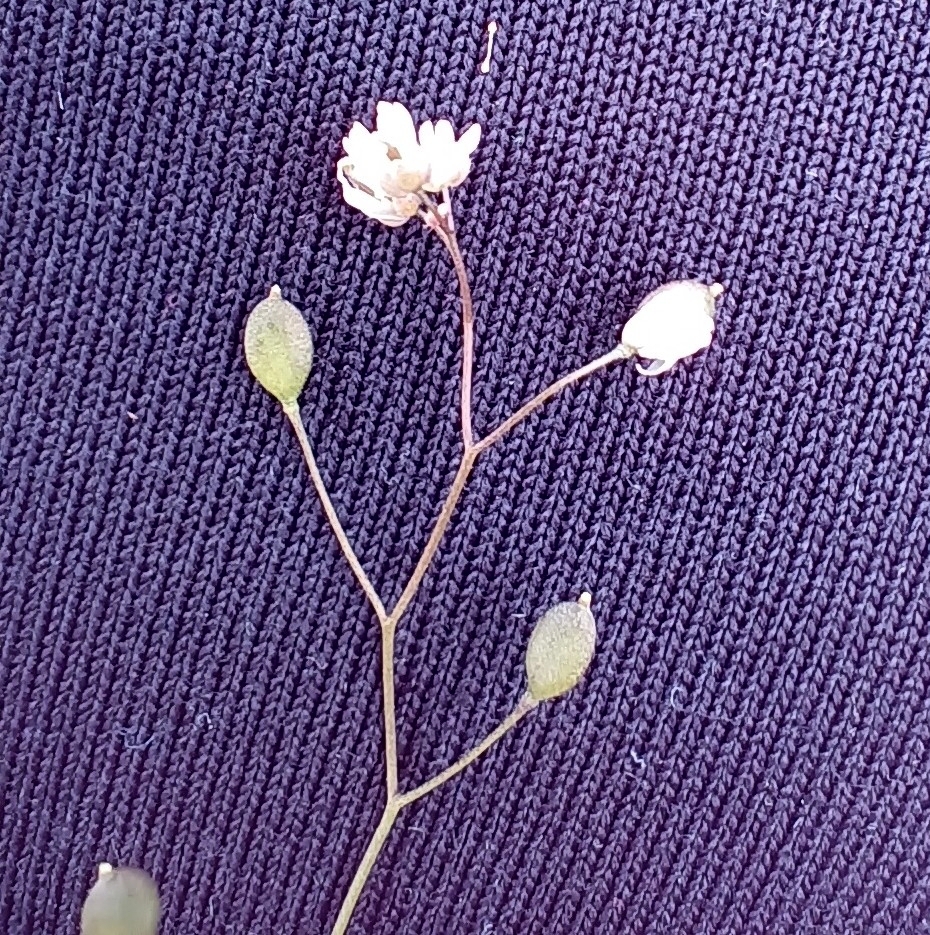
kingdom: Plantae
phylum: Tracheophyta
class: Magnoliopsida
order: Brassicales
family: Brassicaceae
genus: Draba
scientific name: Draba verna
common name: Spring draba
